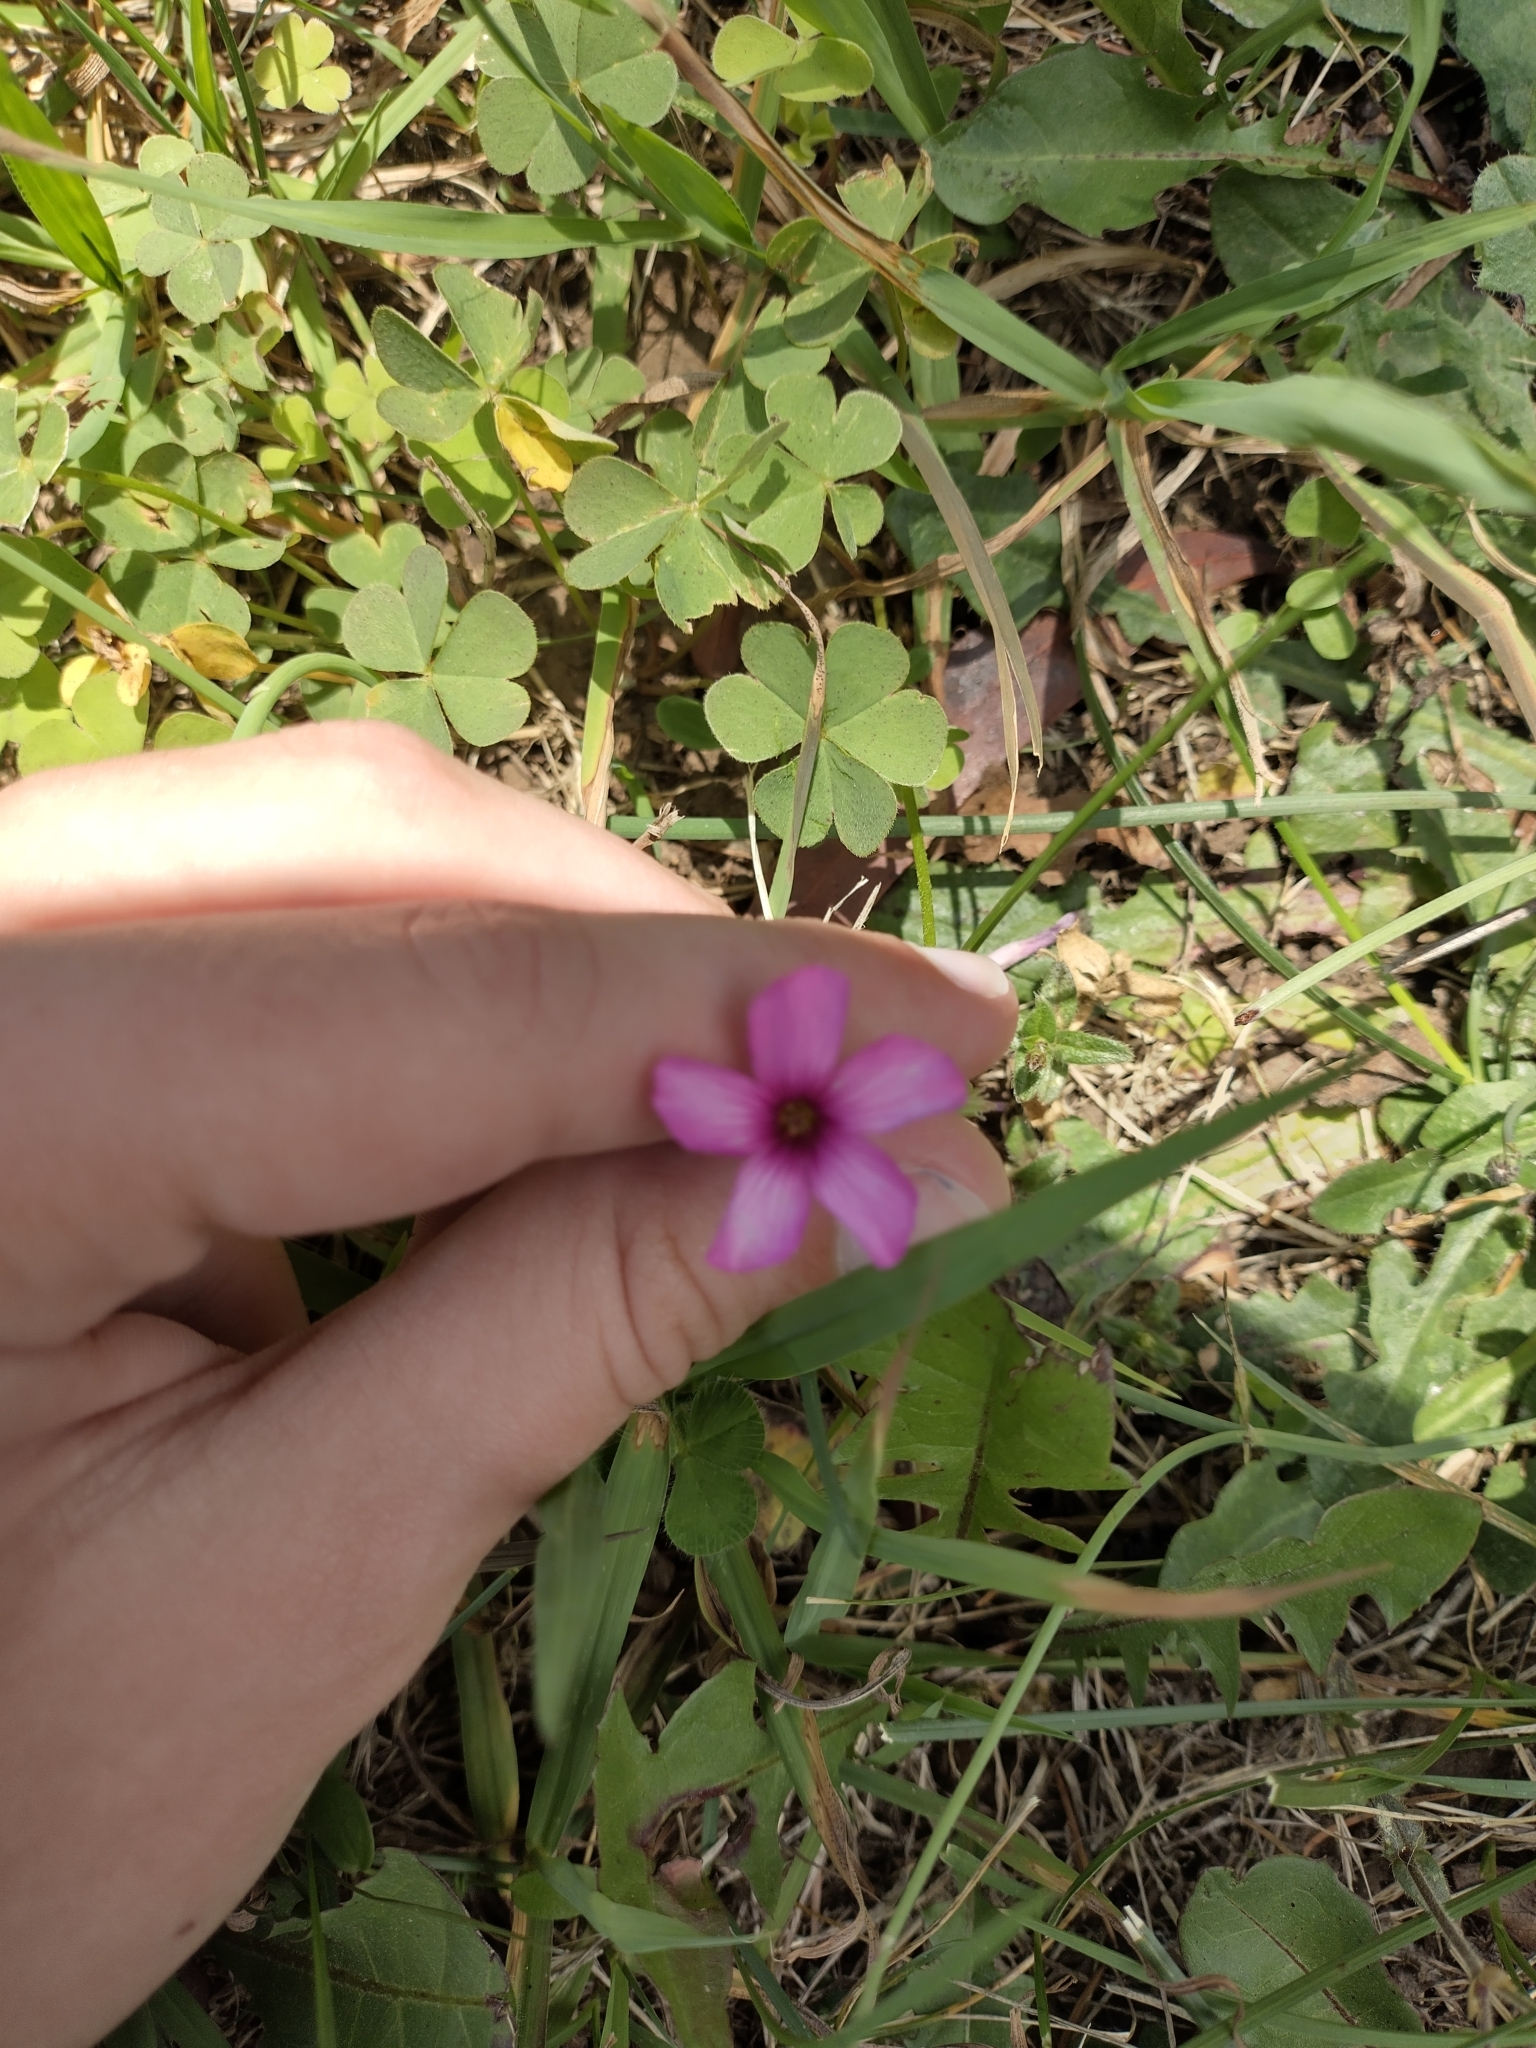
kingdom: Plantae
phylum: Tracheophyta
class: Magnoliopsida
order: Oxalidales
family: Oxalidaceae
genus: Oxalis
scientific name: Oxalis articulata
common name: Pink-sorrel
